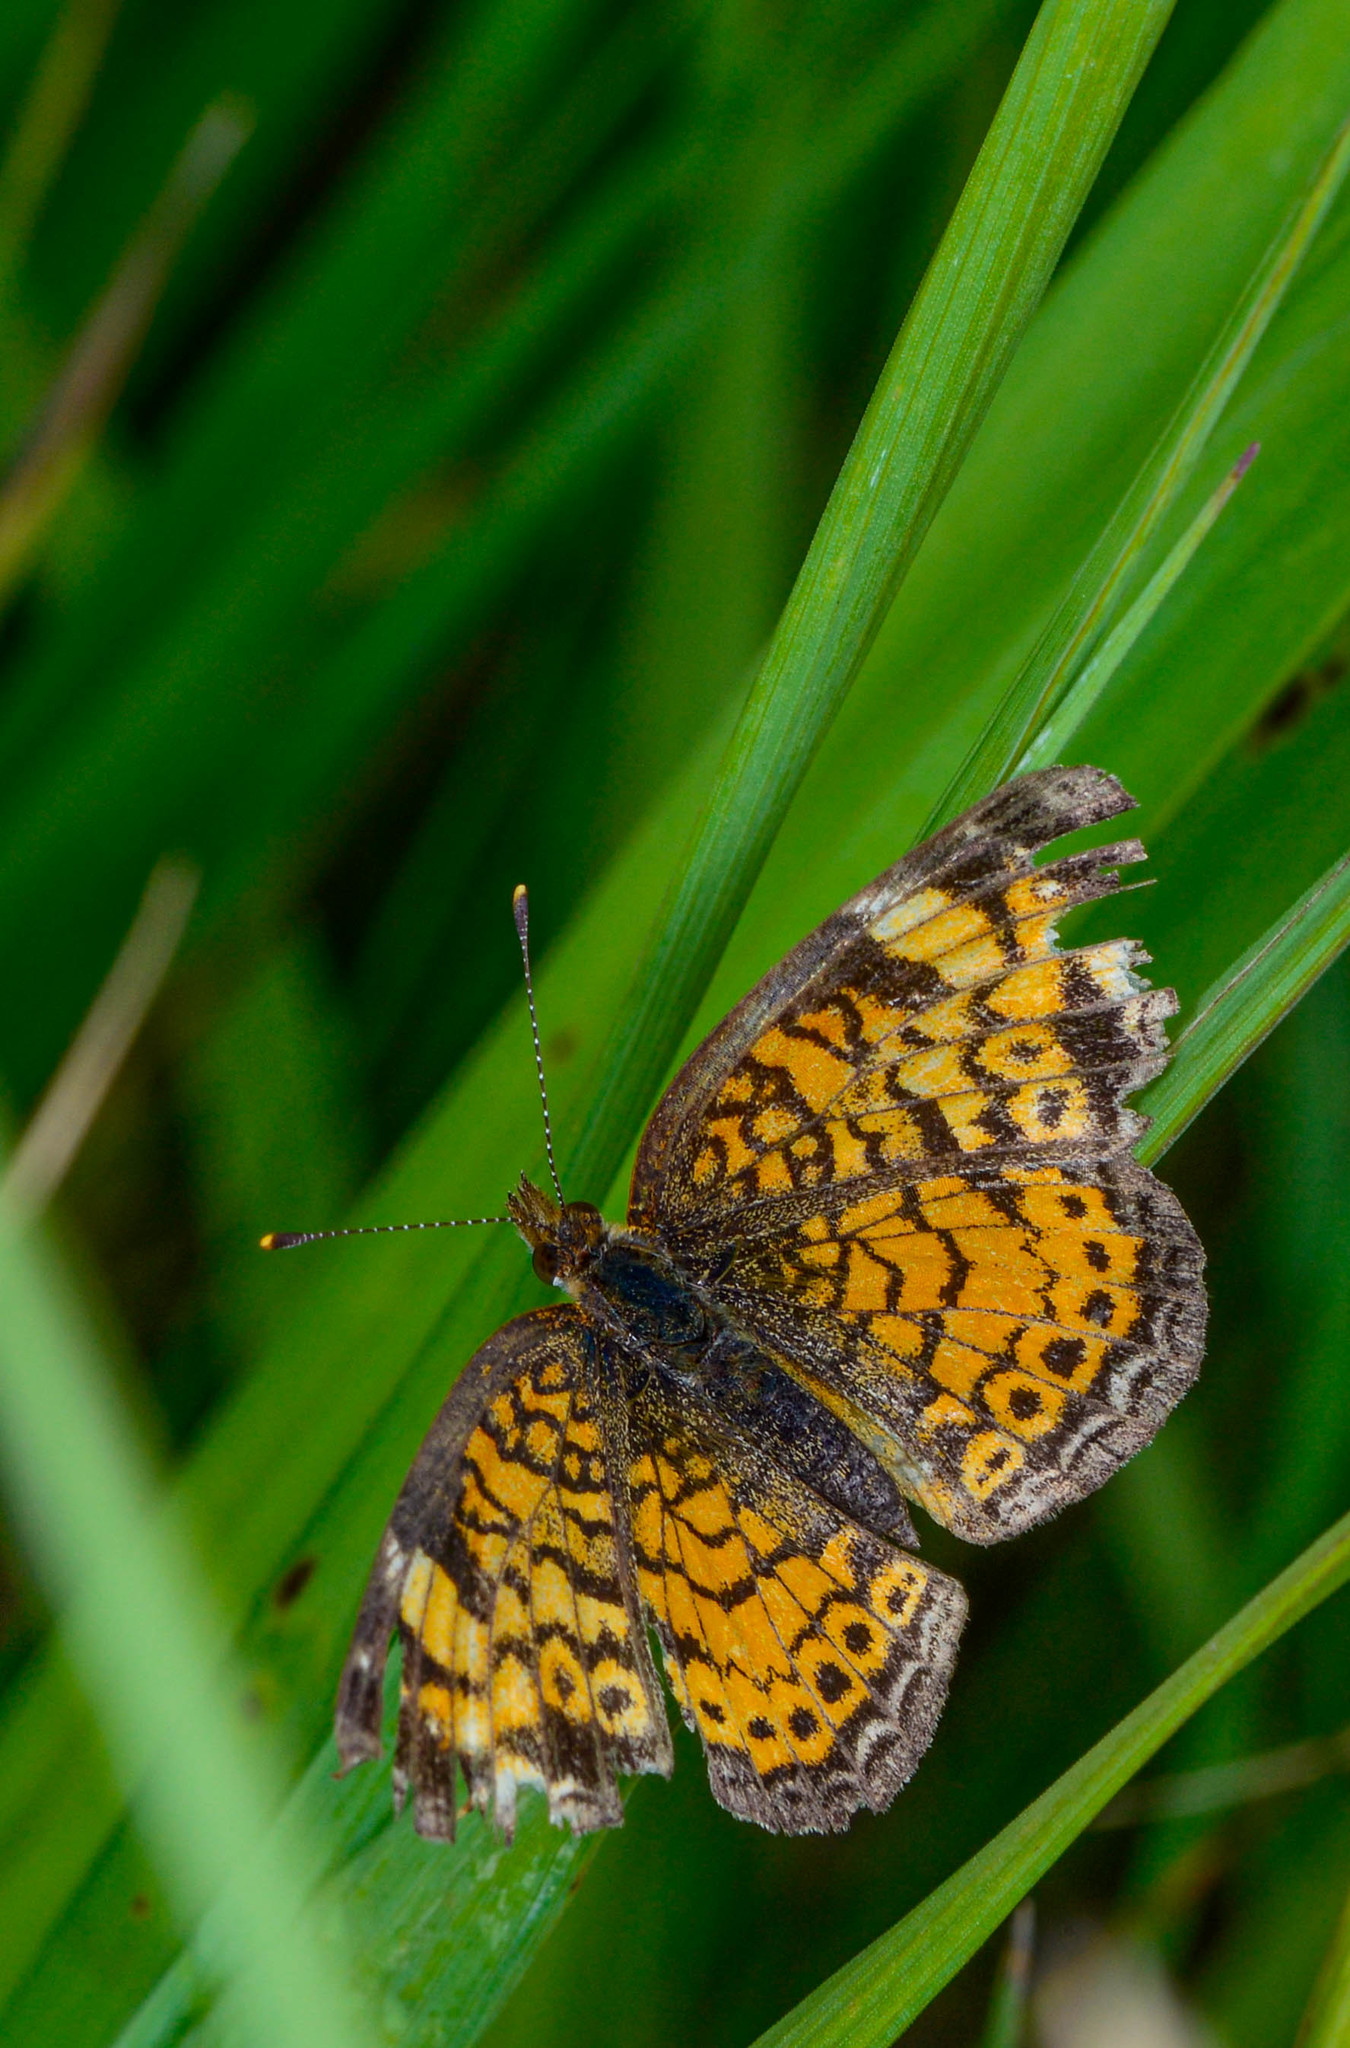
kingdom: Animalia
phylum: Arthropoda
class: Insecta
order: Lepidoptera
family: Nymphalidae
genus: Phyciodes
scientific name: Phyciodes tharos
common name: Pearl crescent
